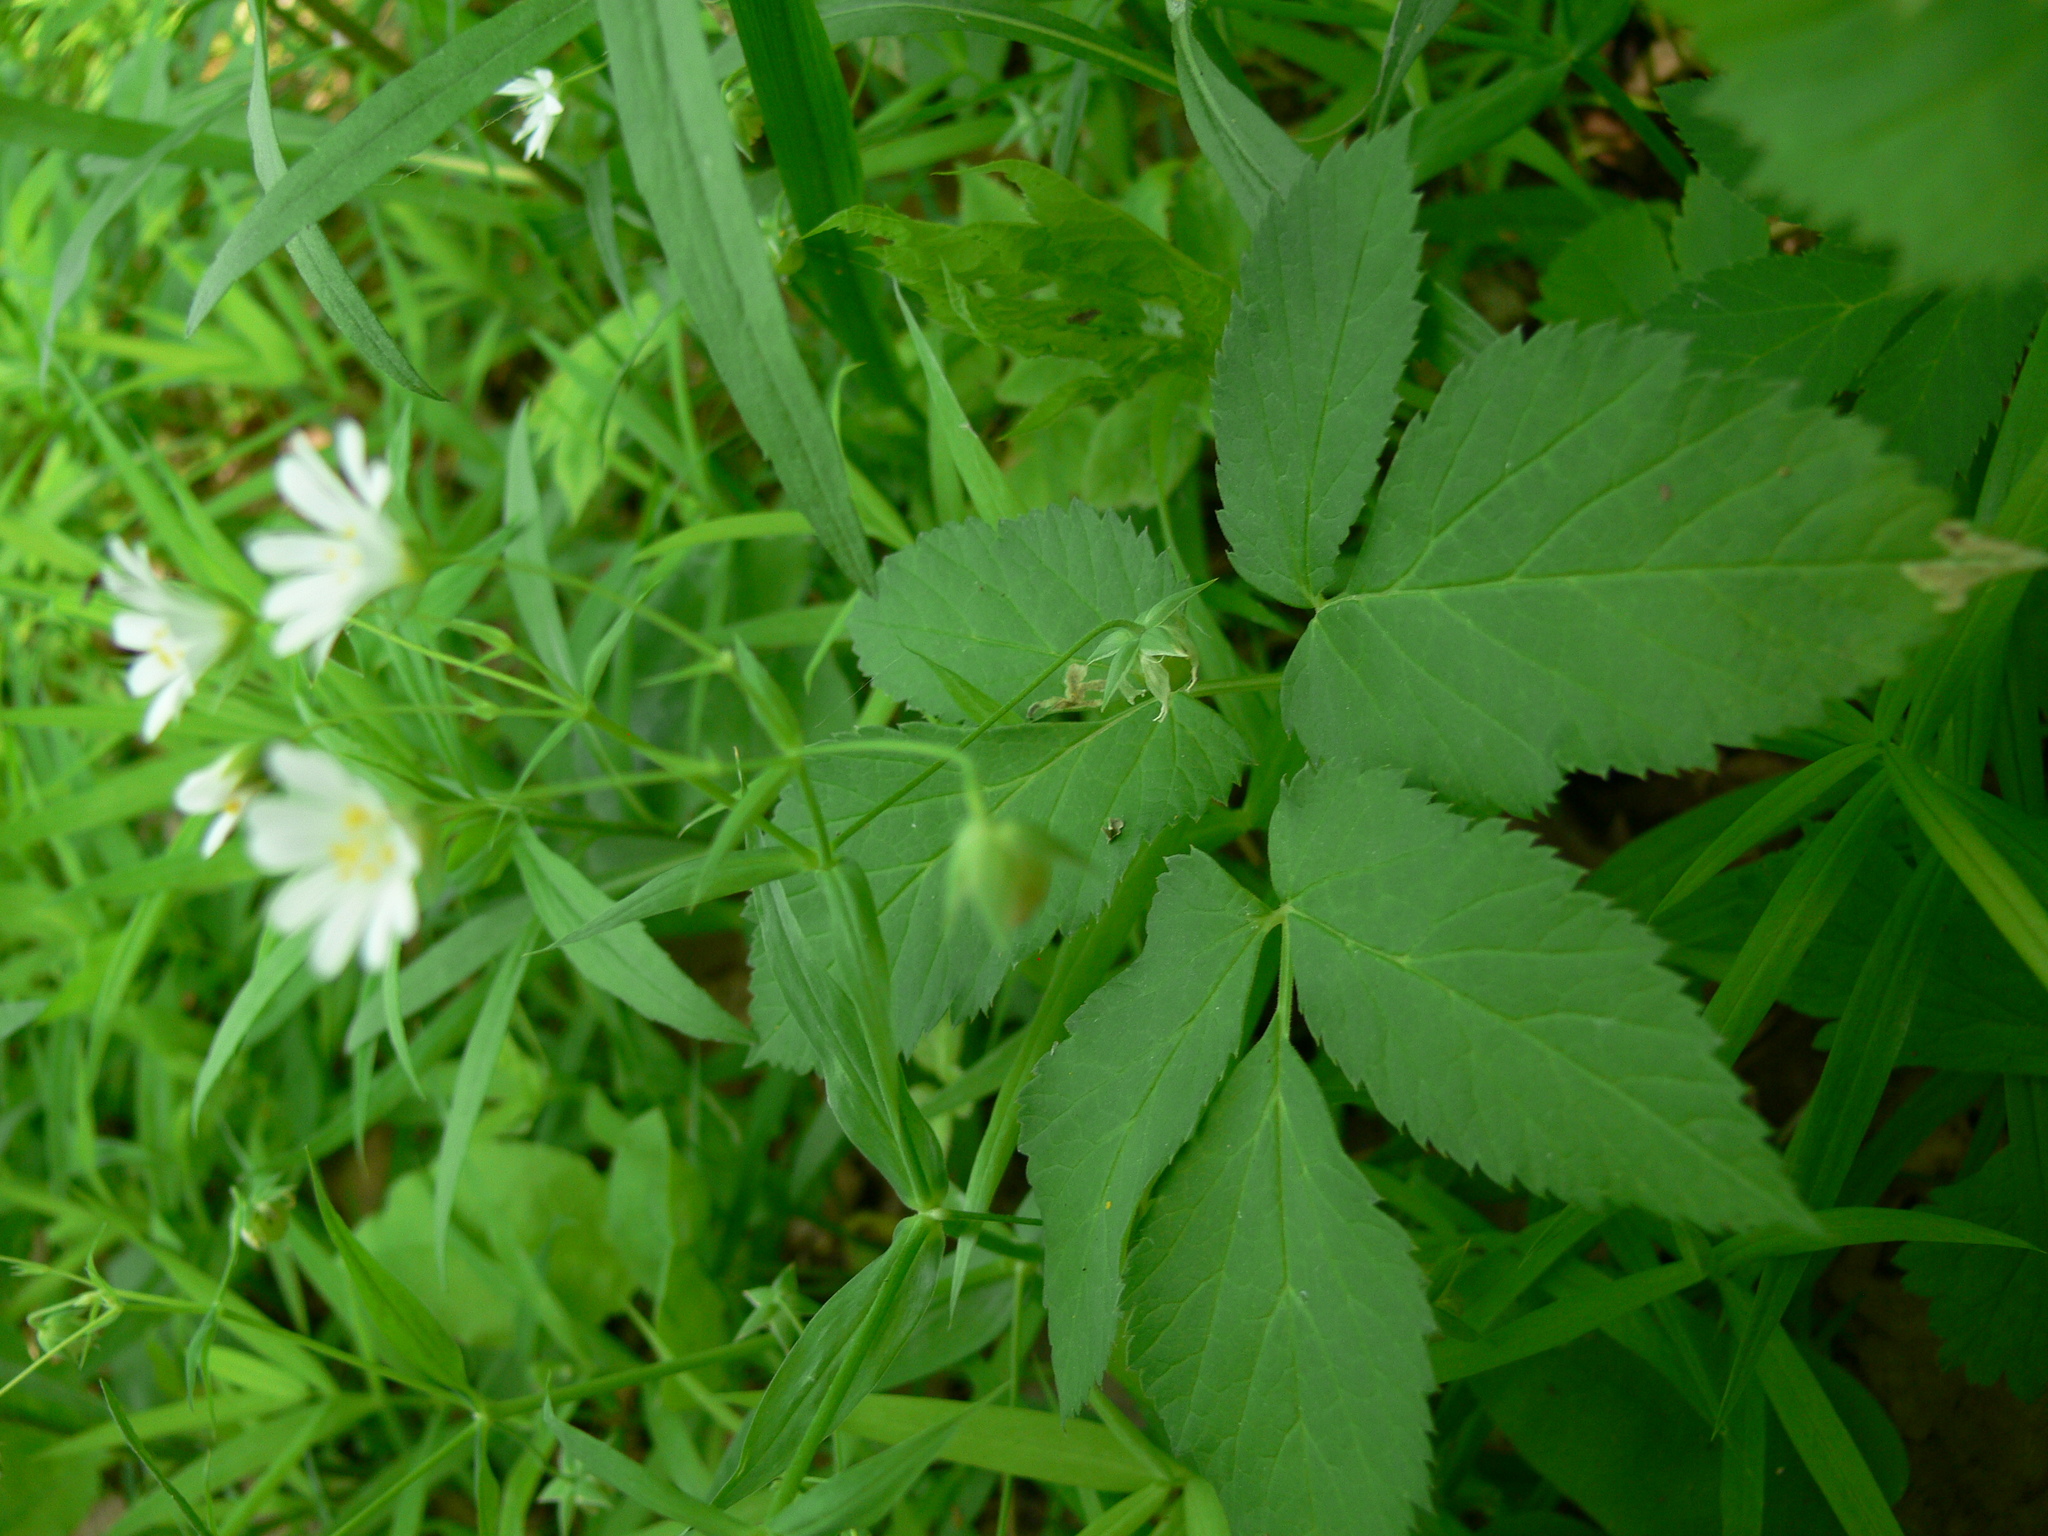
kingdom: Plantae
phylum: Tracheophyta
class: Magnoliopsida
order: Caryophyllales
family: Caryophyllaceae
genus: Rabelera
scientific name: Rabelera holostea
